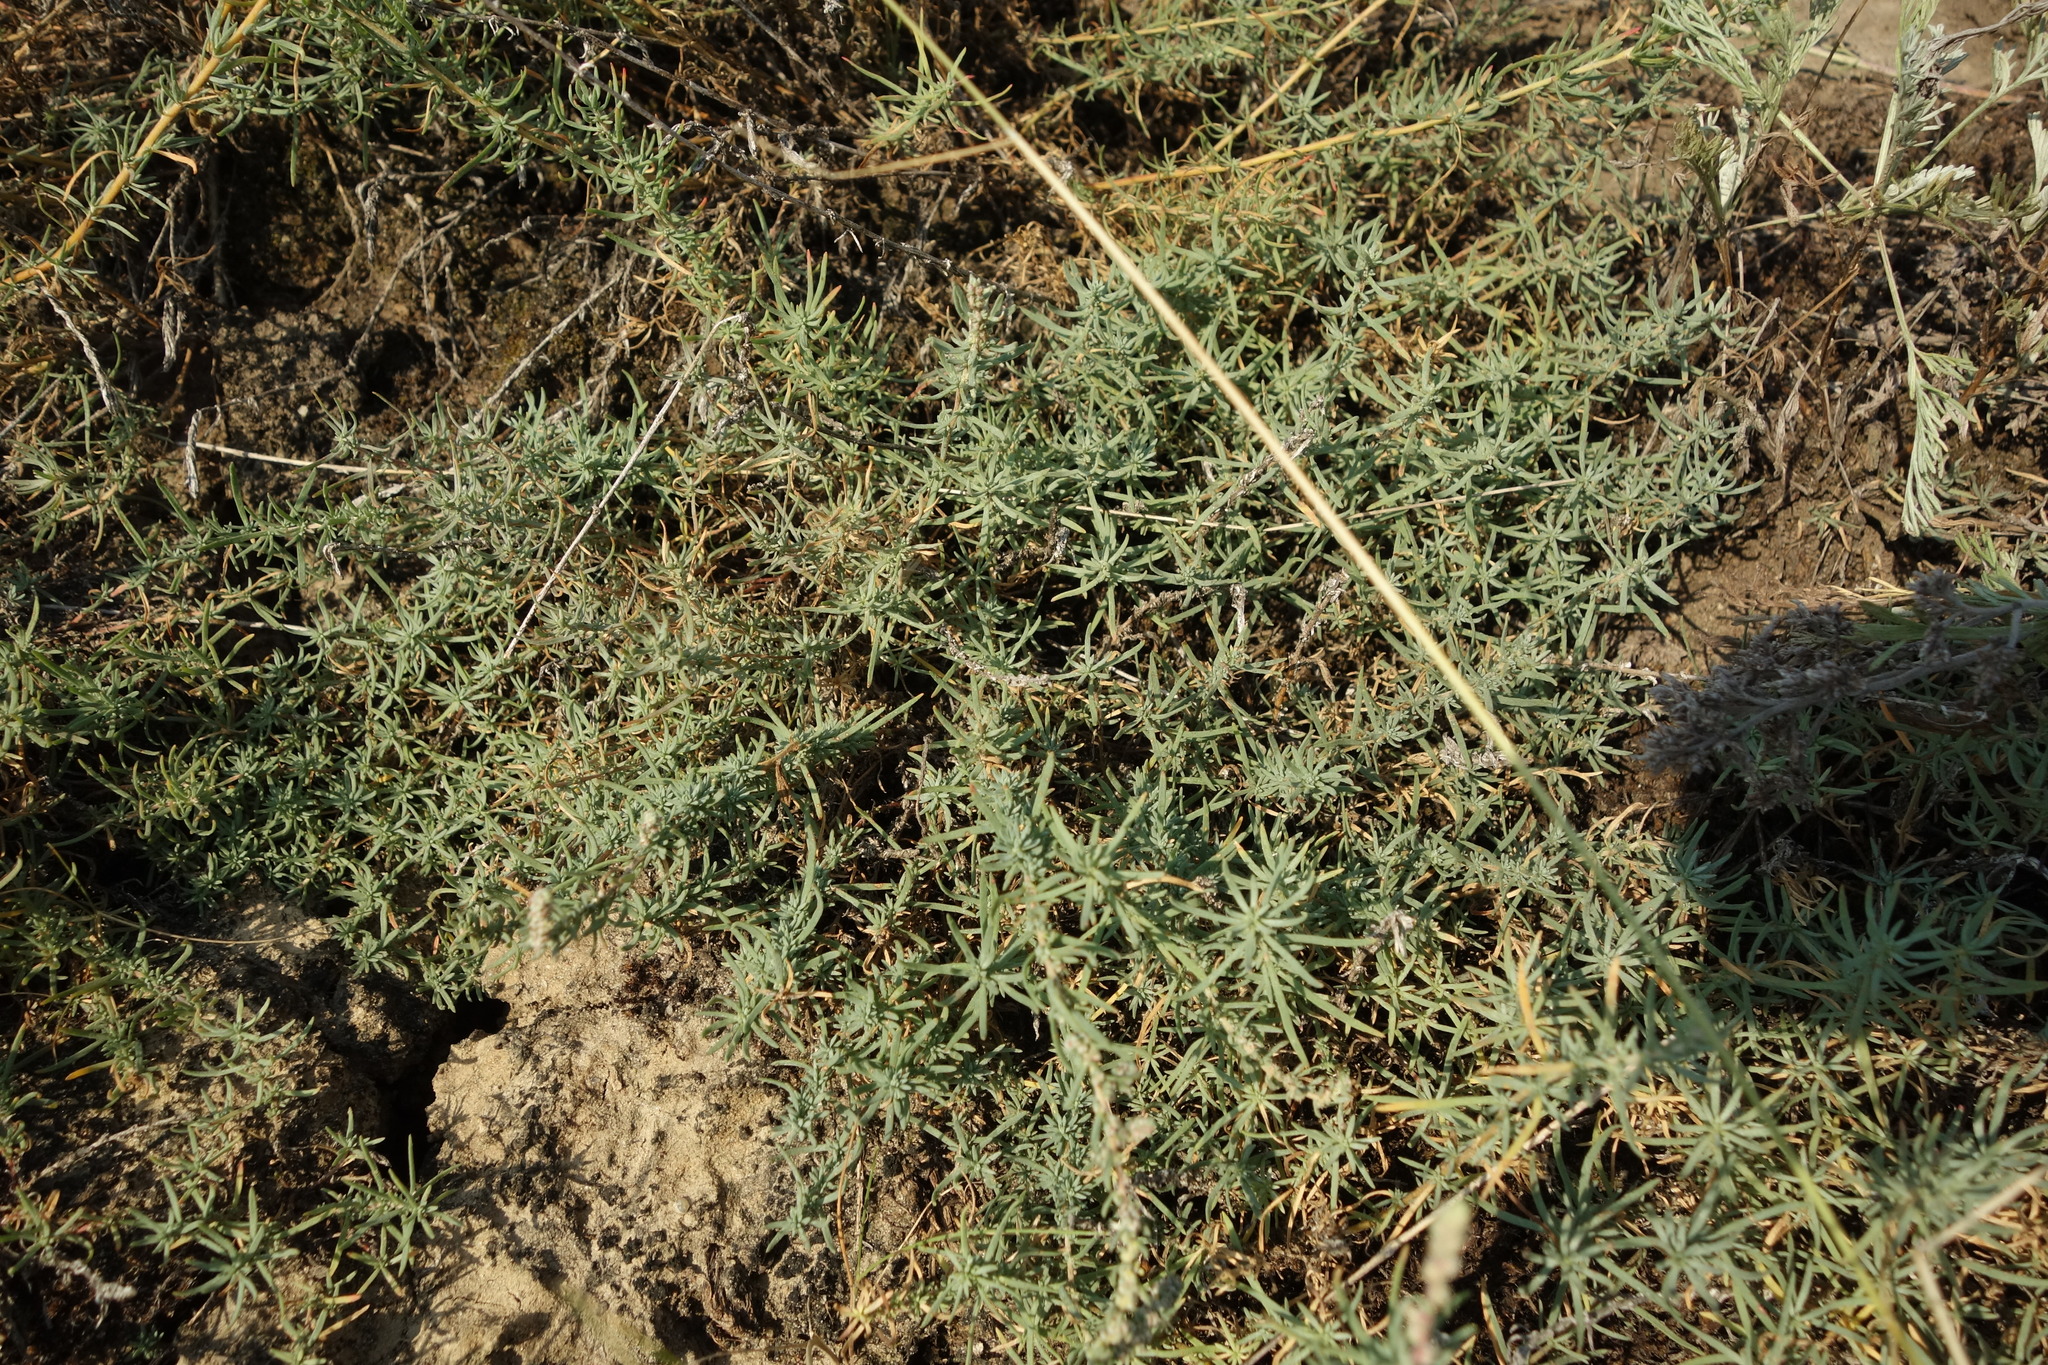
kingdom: Plantae
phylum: Tracheophyta
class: Magnoliopsida
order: Caryophyllales
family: Amaranthaceae
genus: Bassia
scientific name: Bassia prostrata
